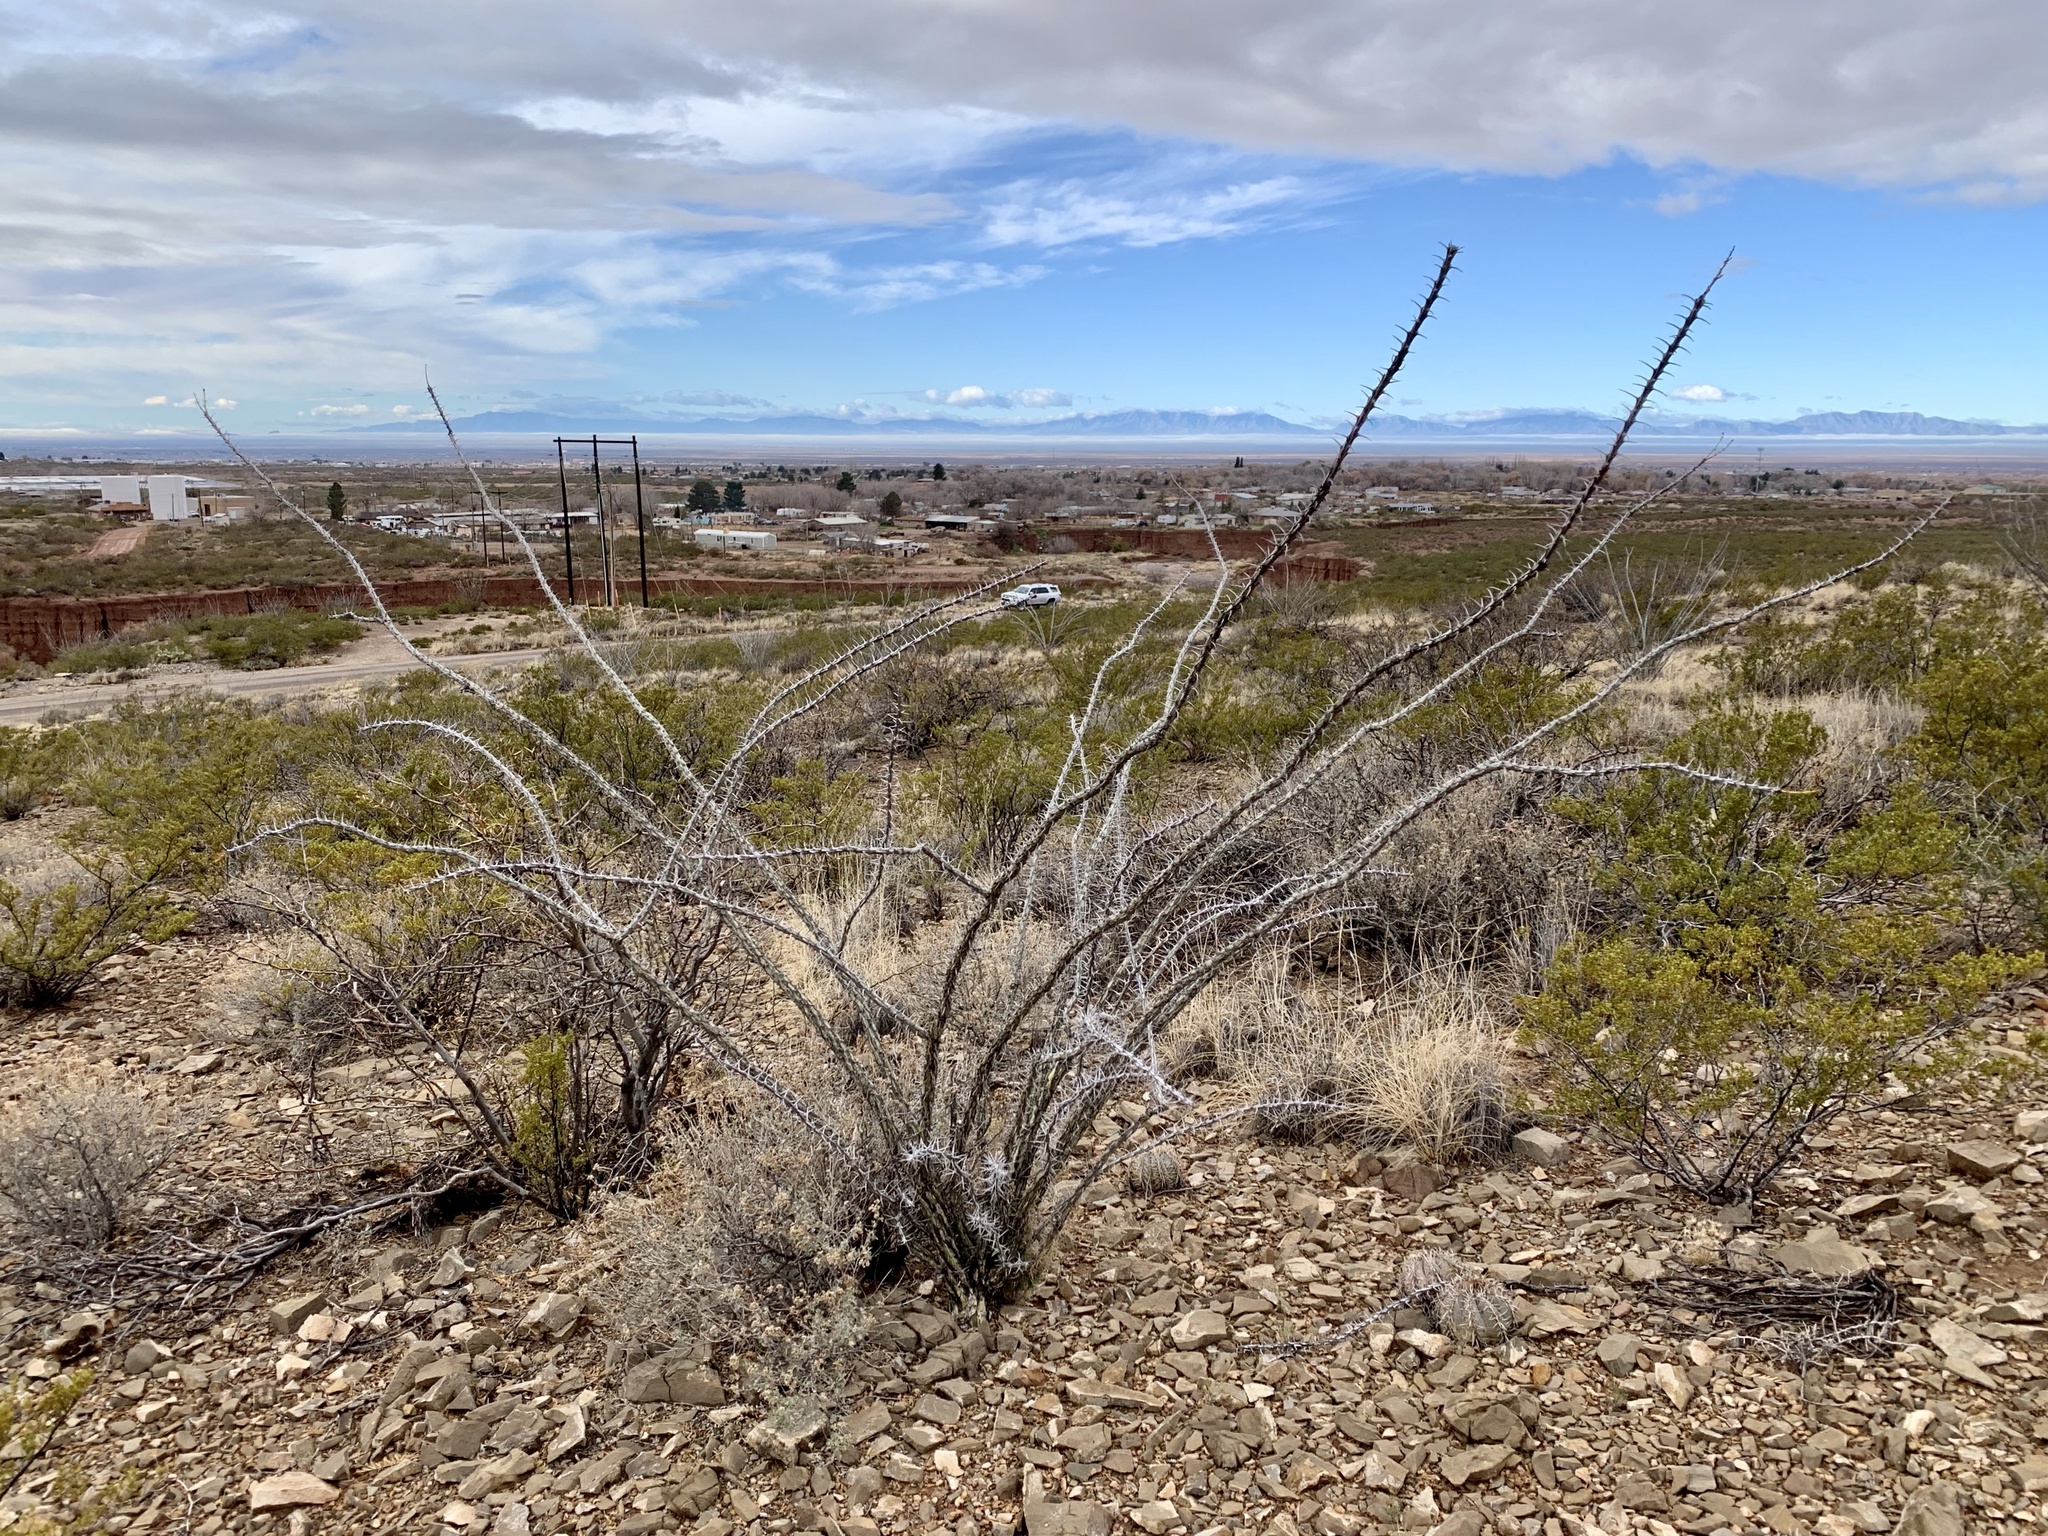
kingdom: Plantae
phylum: Tracheophyta
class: Magnoliopsida
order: Ericales
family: Fouquieriaceae
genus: Fouquieria
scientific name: Fouquieria splendens
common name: Vine-cactus
